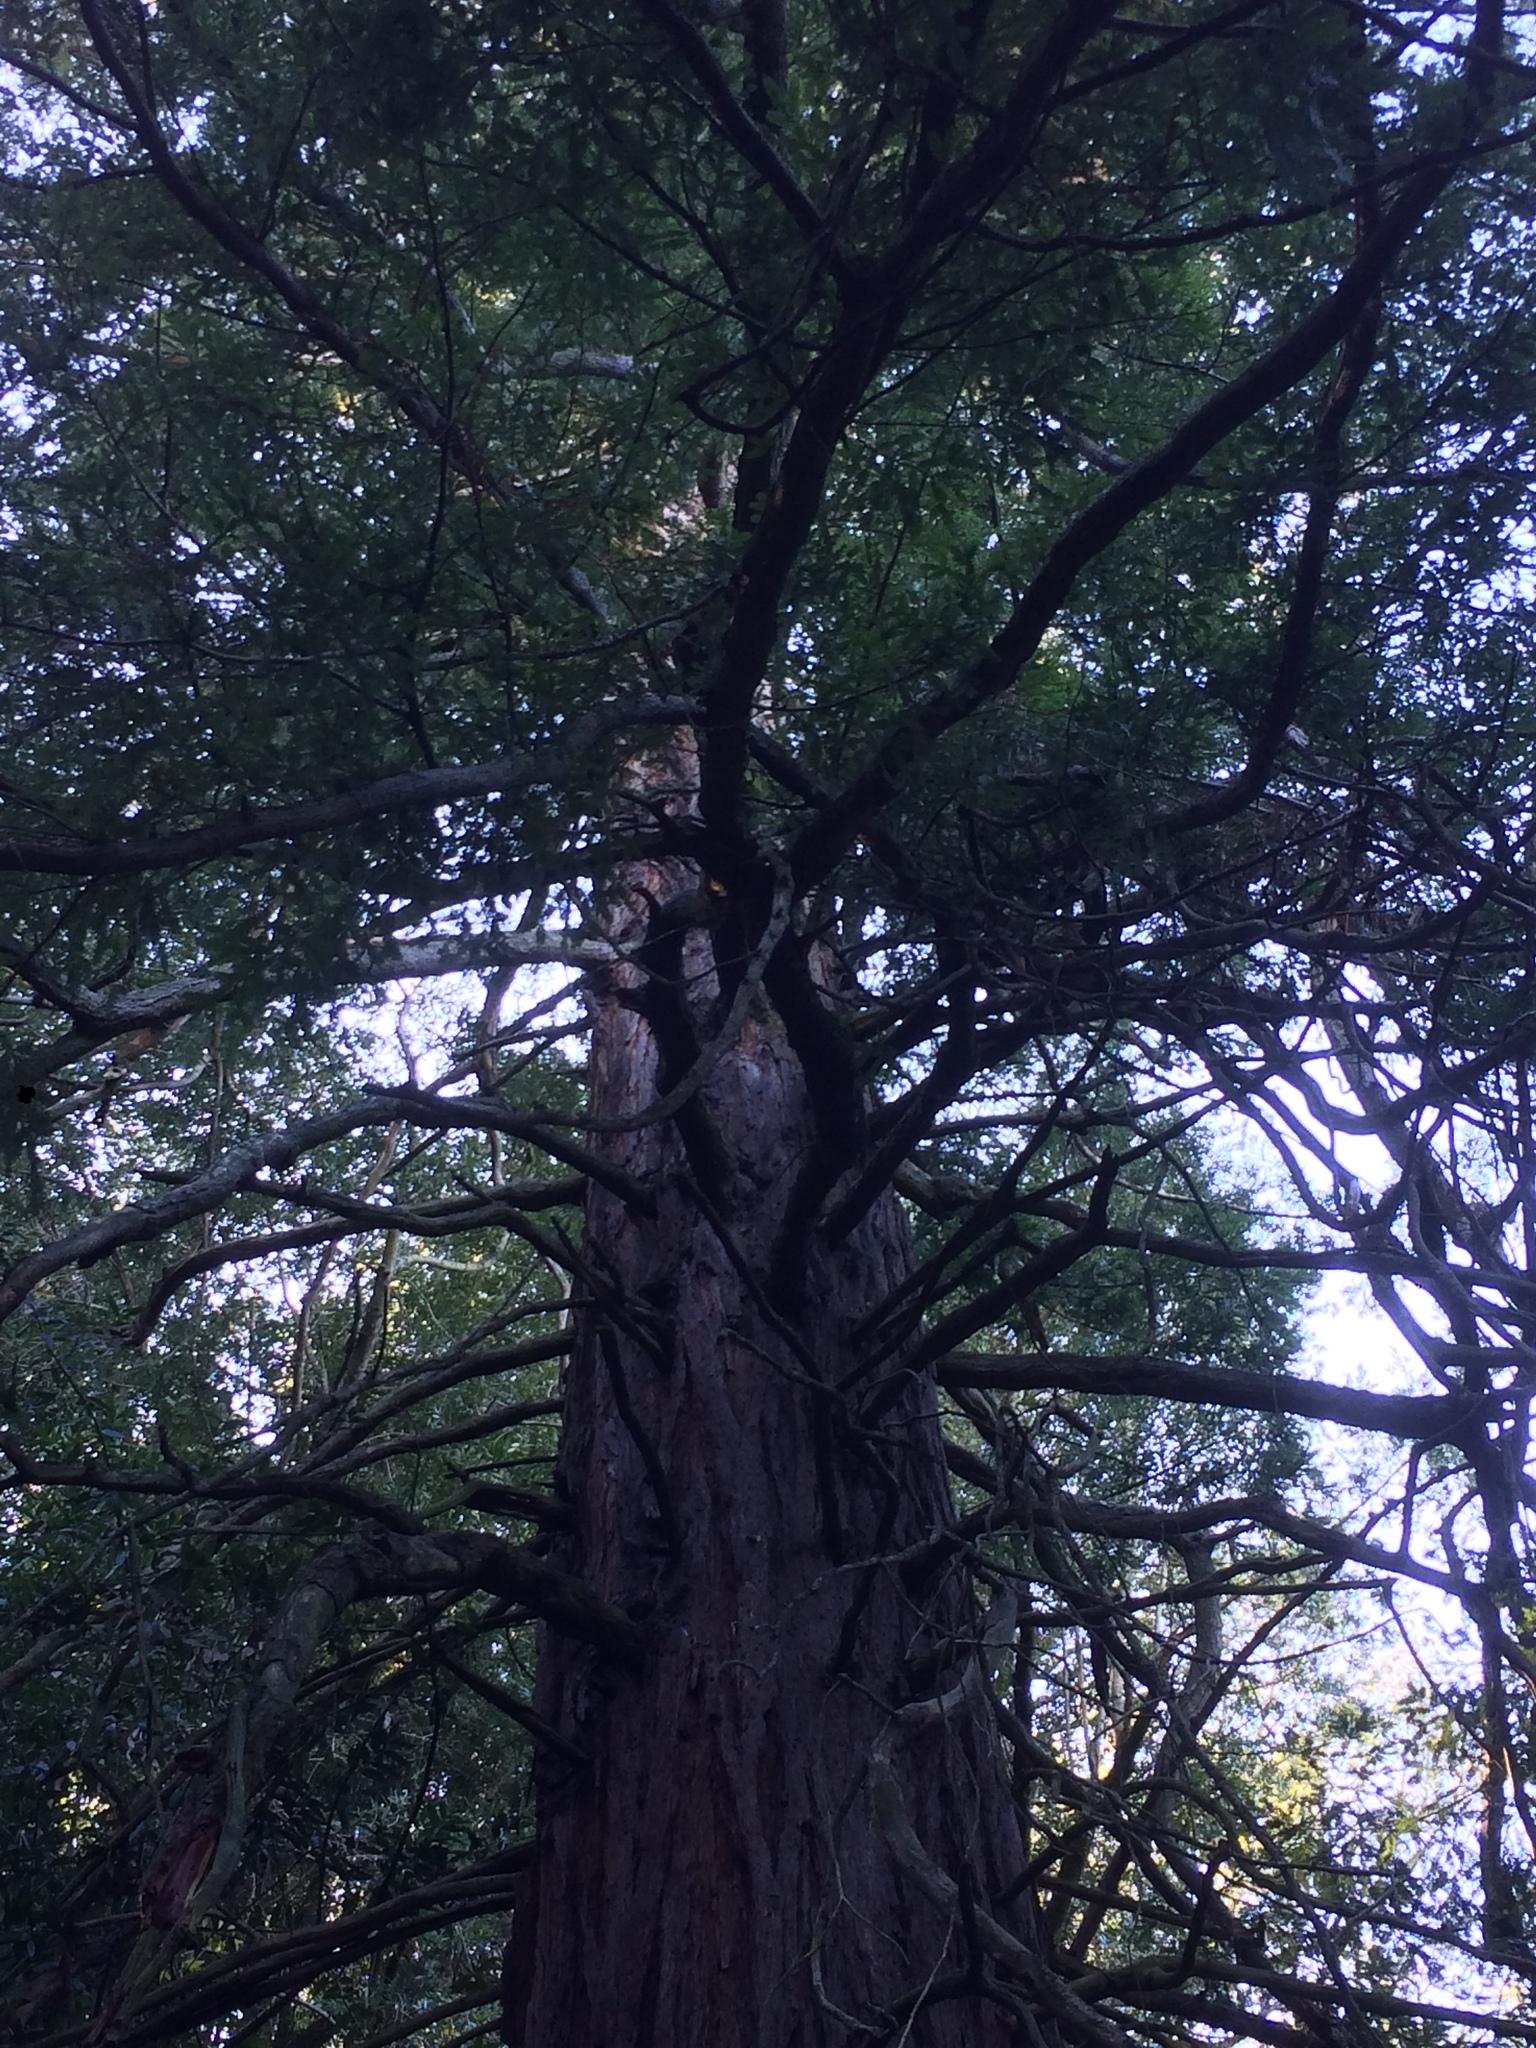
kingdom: Plantae
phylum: Tracheophyta
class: Pinopsida
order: Pinales
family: Cupressaceae
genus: Sequoia
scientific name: Sequoia sempervirens
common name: Coast redwood
